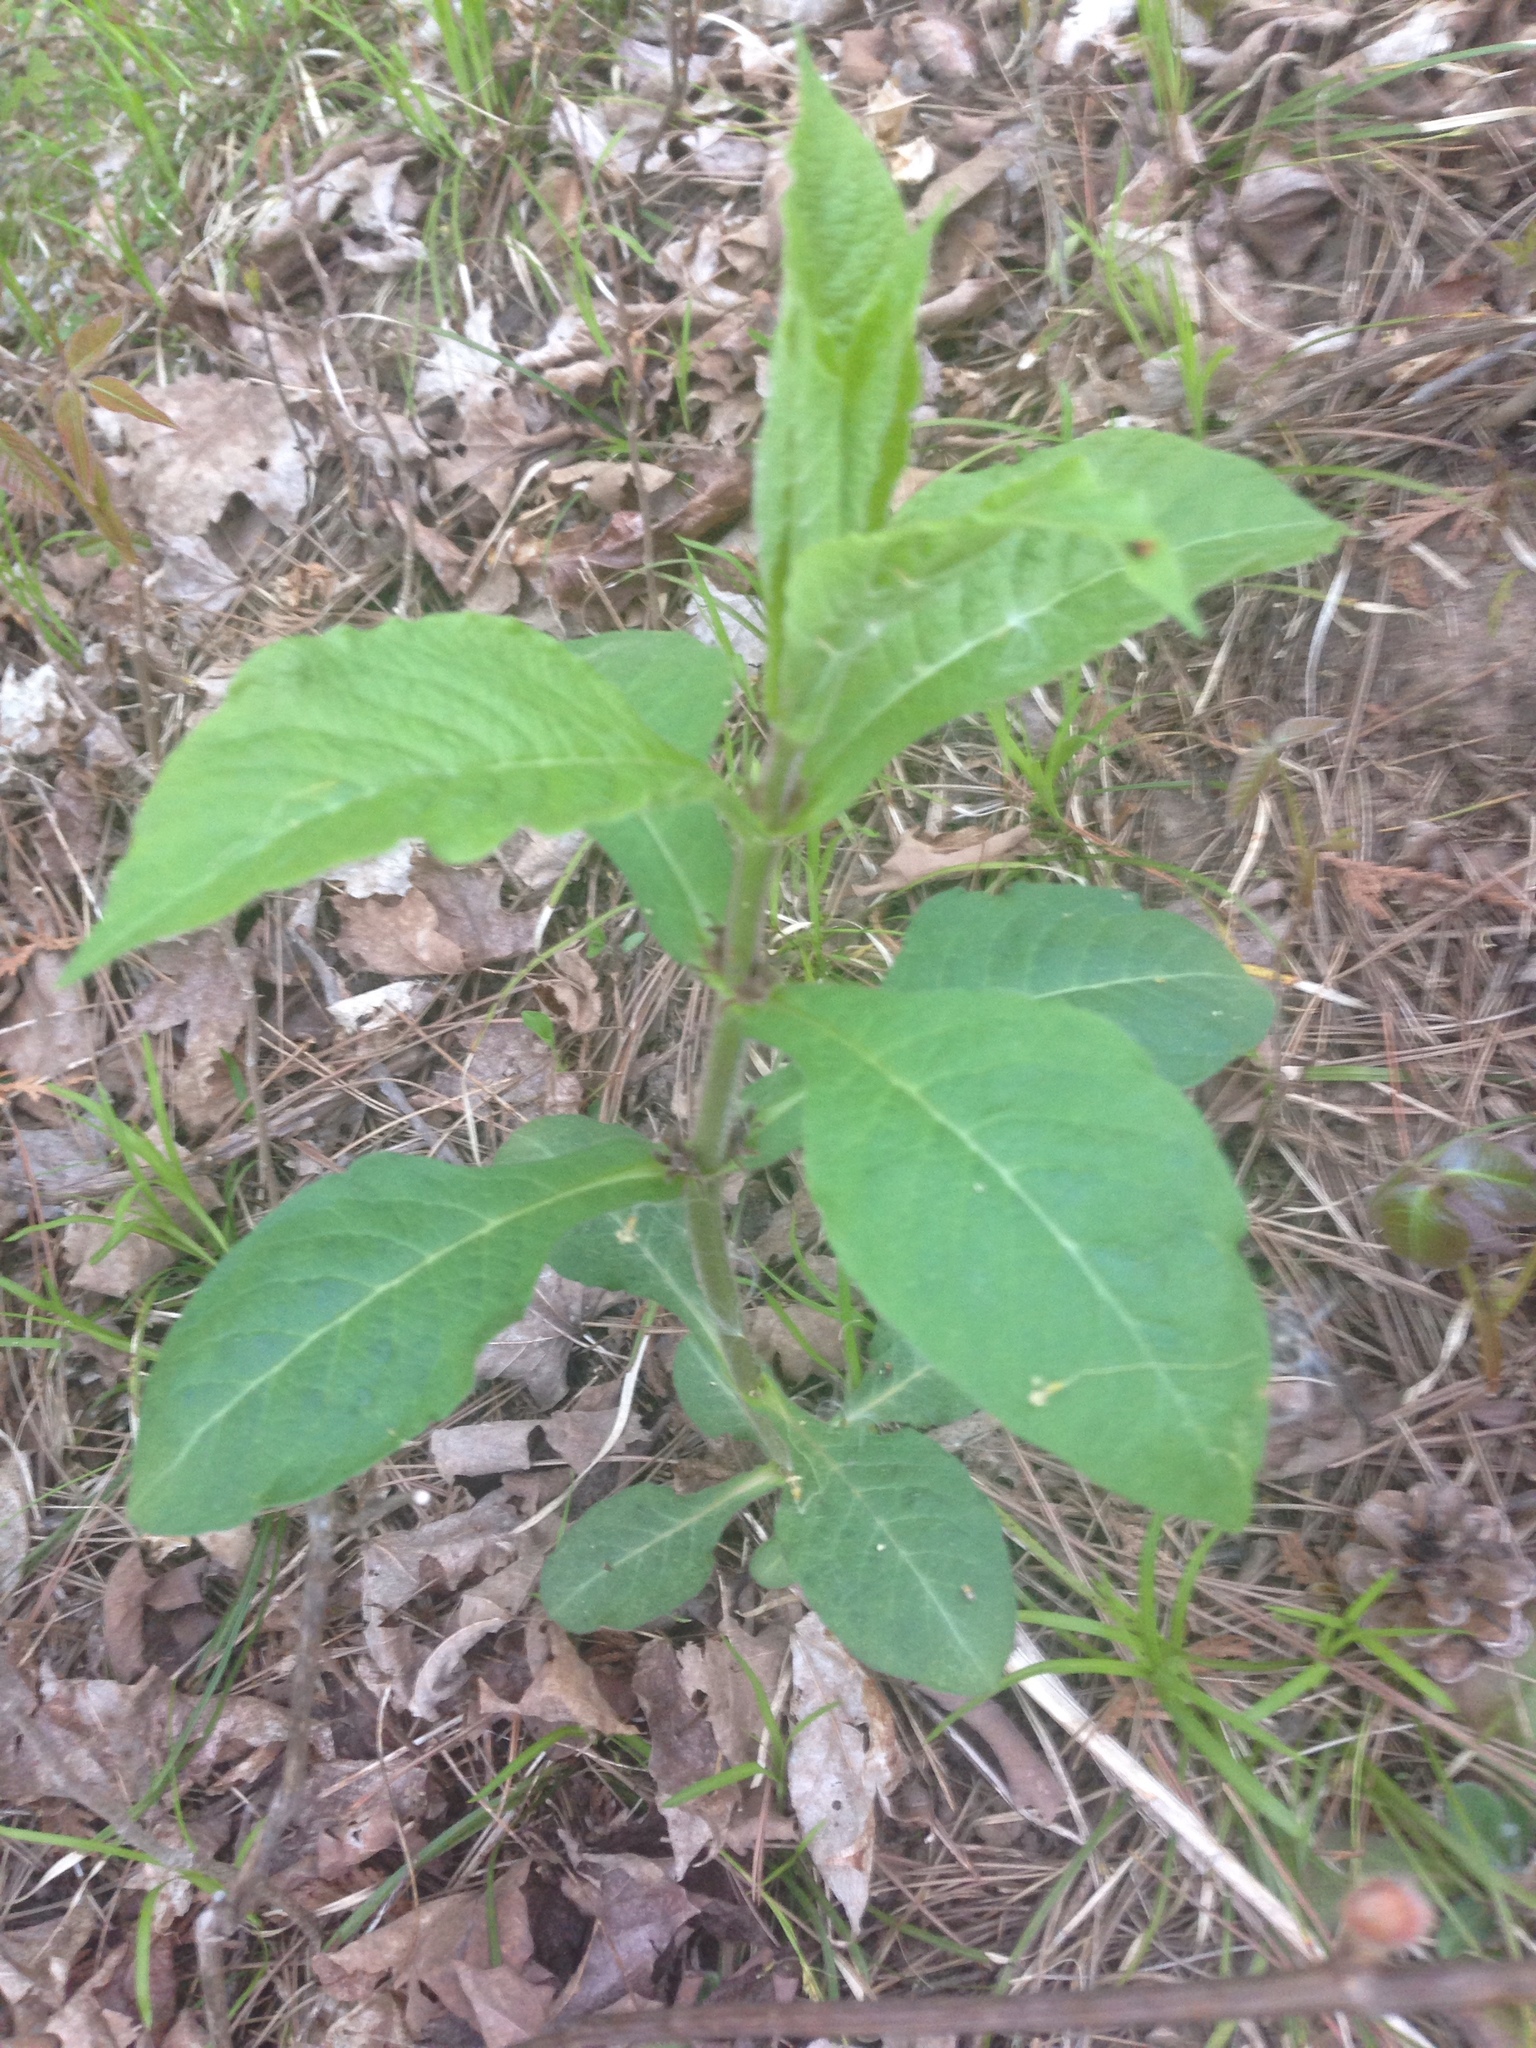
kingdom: Plantae
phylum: Tracheophyta
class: Magnoliopsida
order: Dipsacales
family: Caprifoliaceae
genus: Triosteum
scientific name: Triosteum aurantiacum
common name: Coffee tinker's-weed
